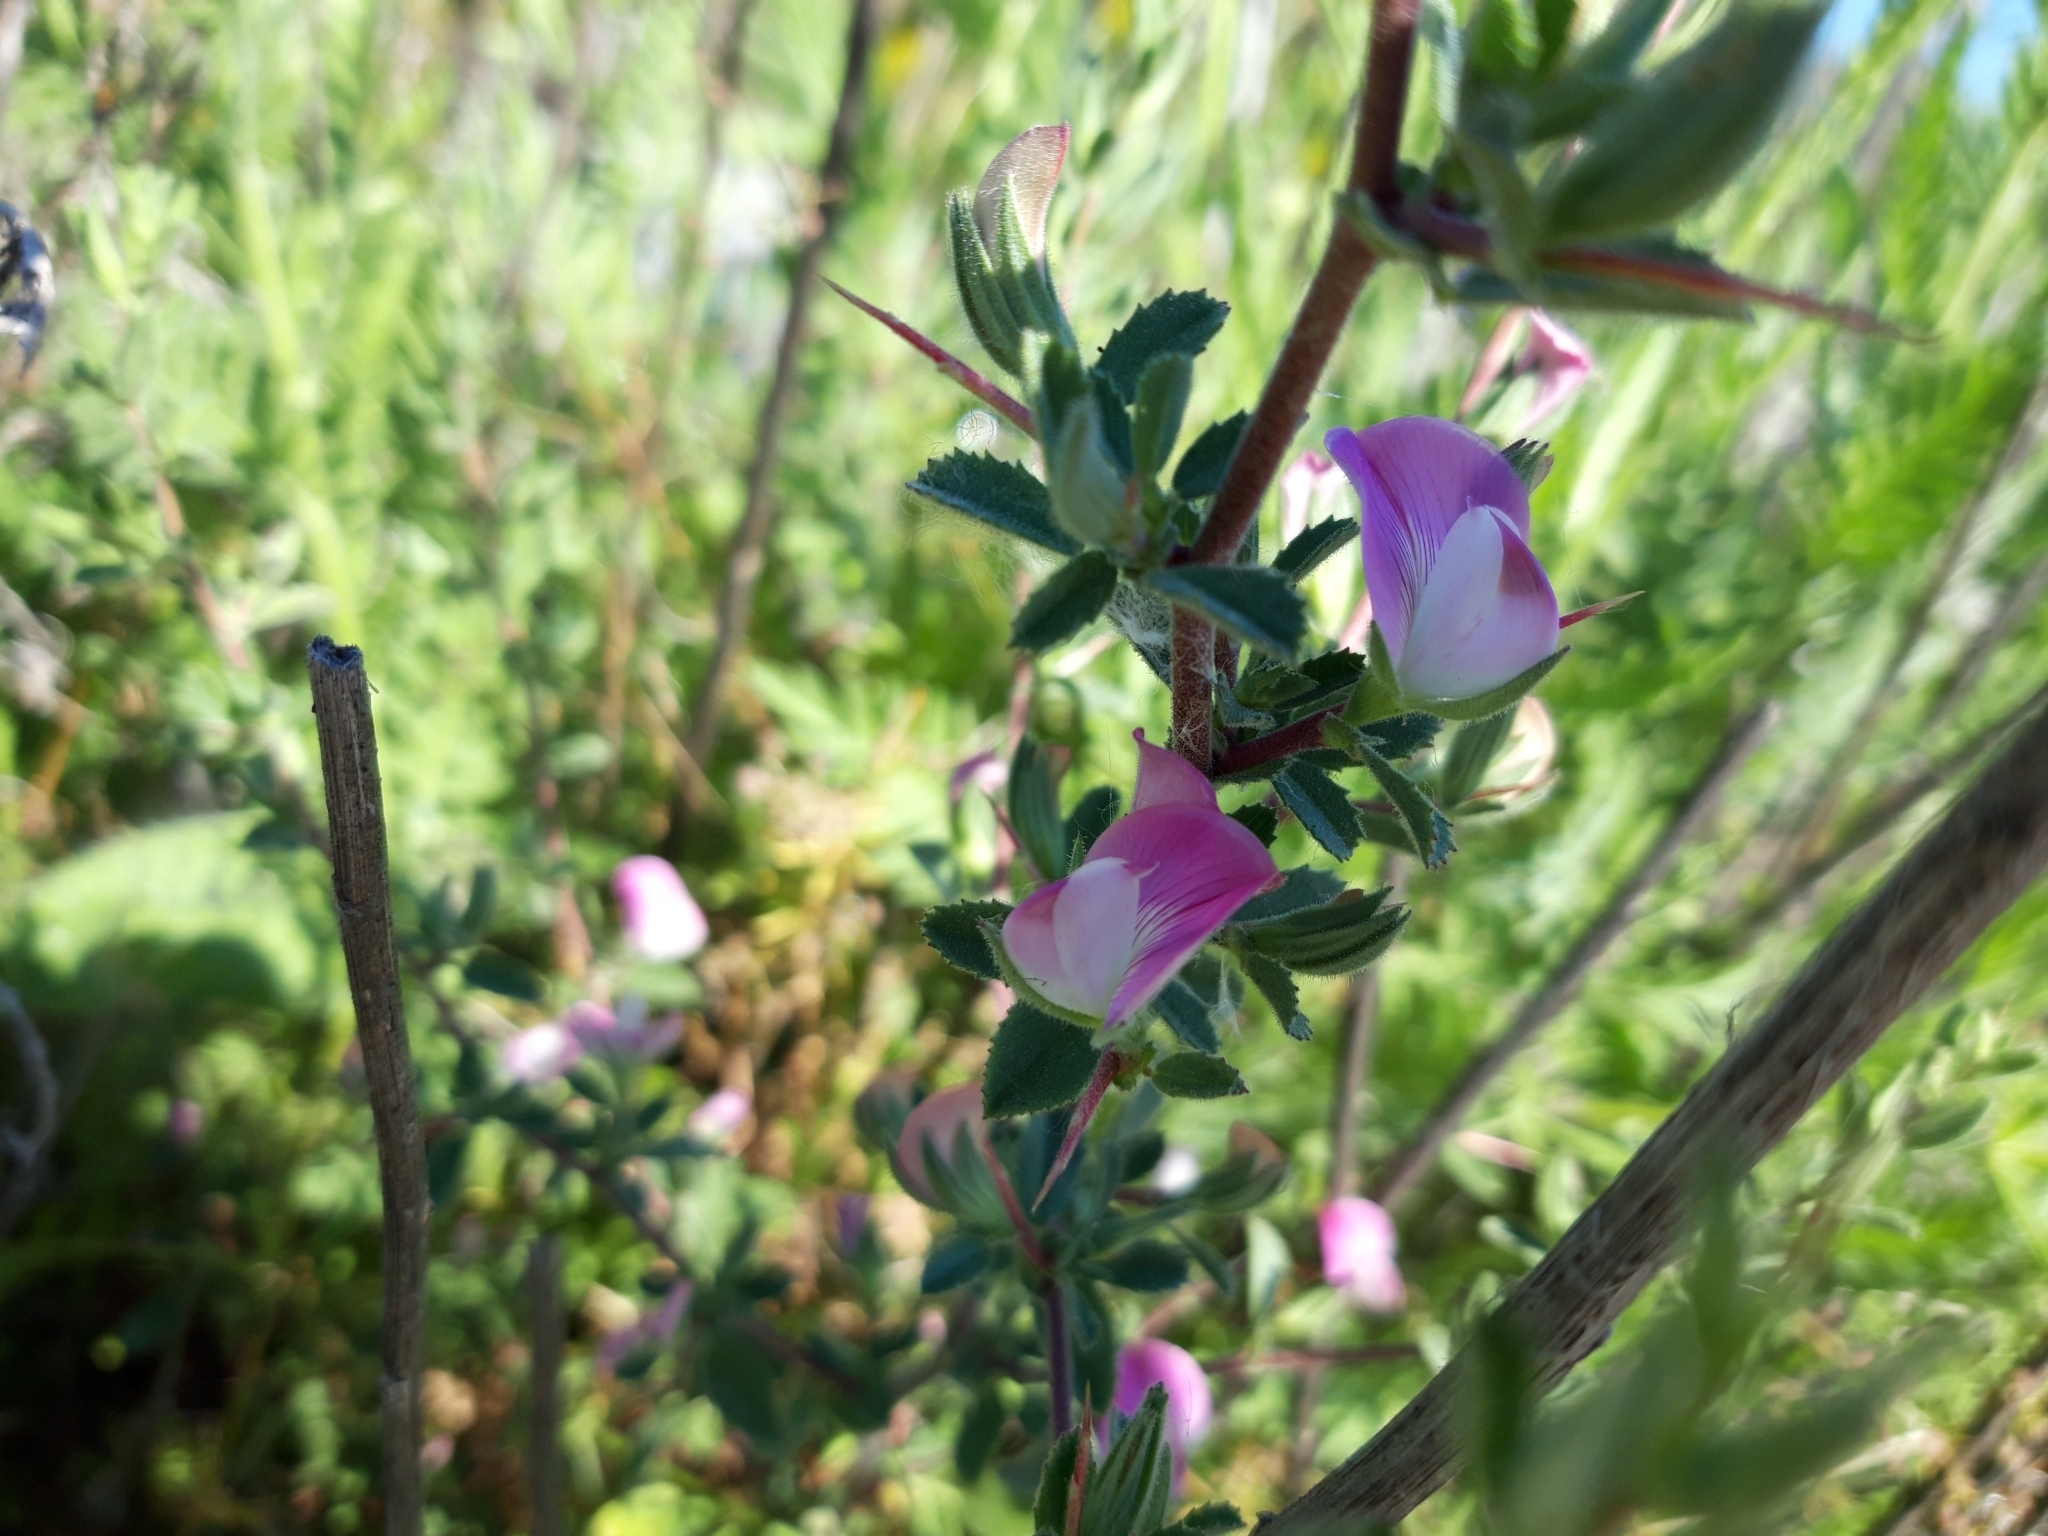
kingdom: Plantae
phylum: Tracheophyta
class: Magnoliopsida
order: Fabales
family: Fabaceae
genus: Ononis
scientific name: Ononis spinosa
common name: Spiny restharrow
